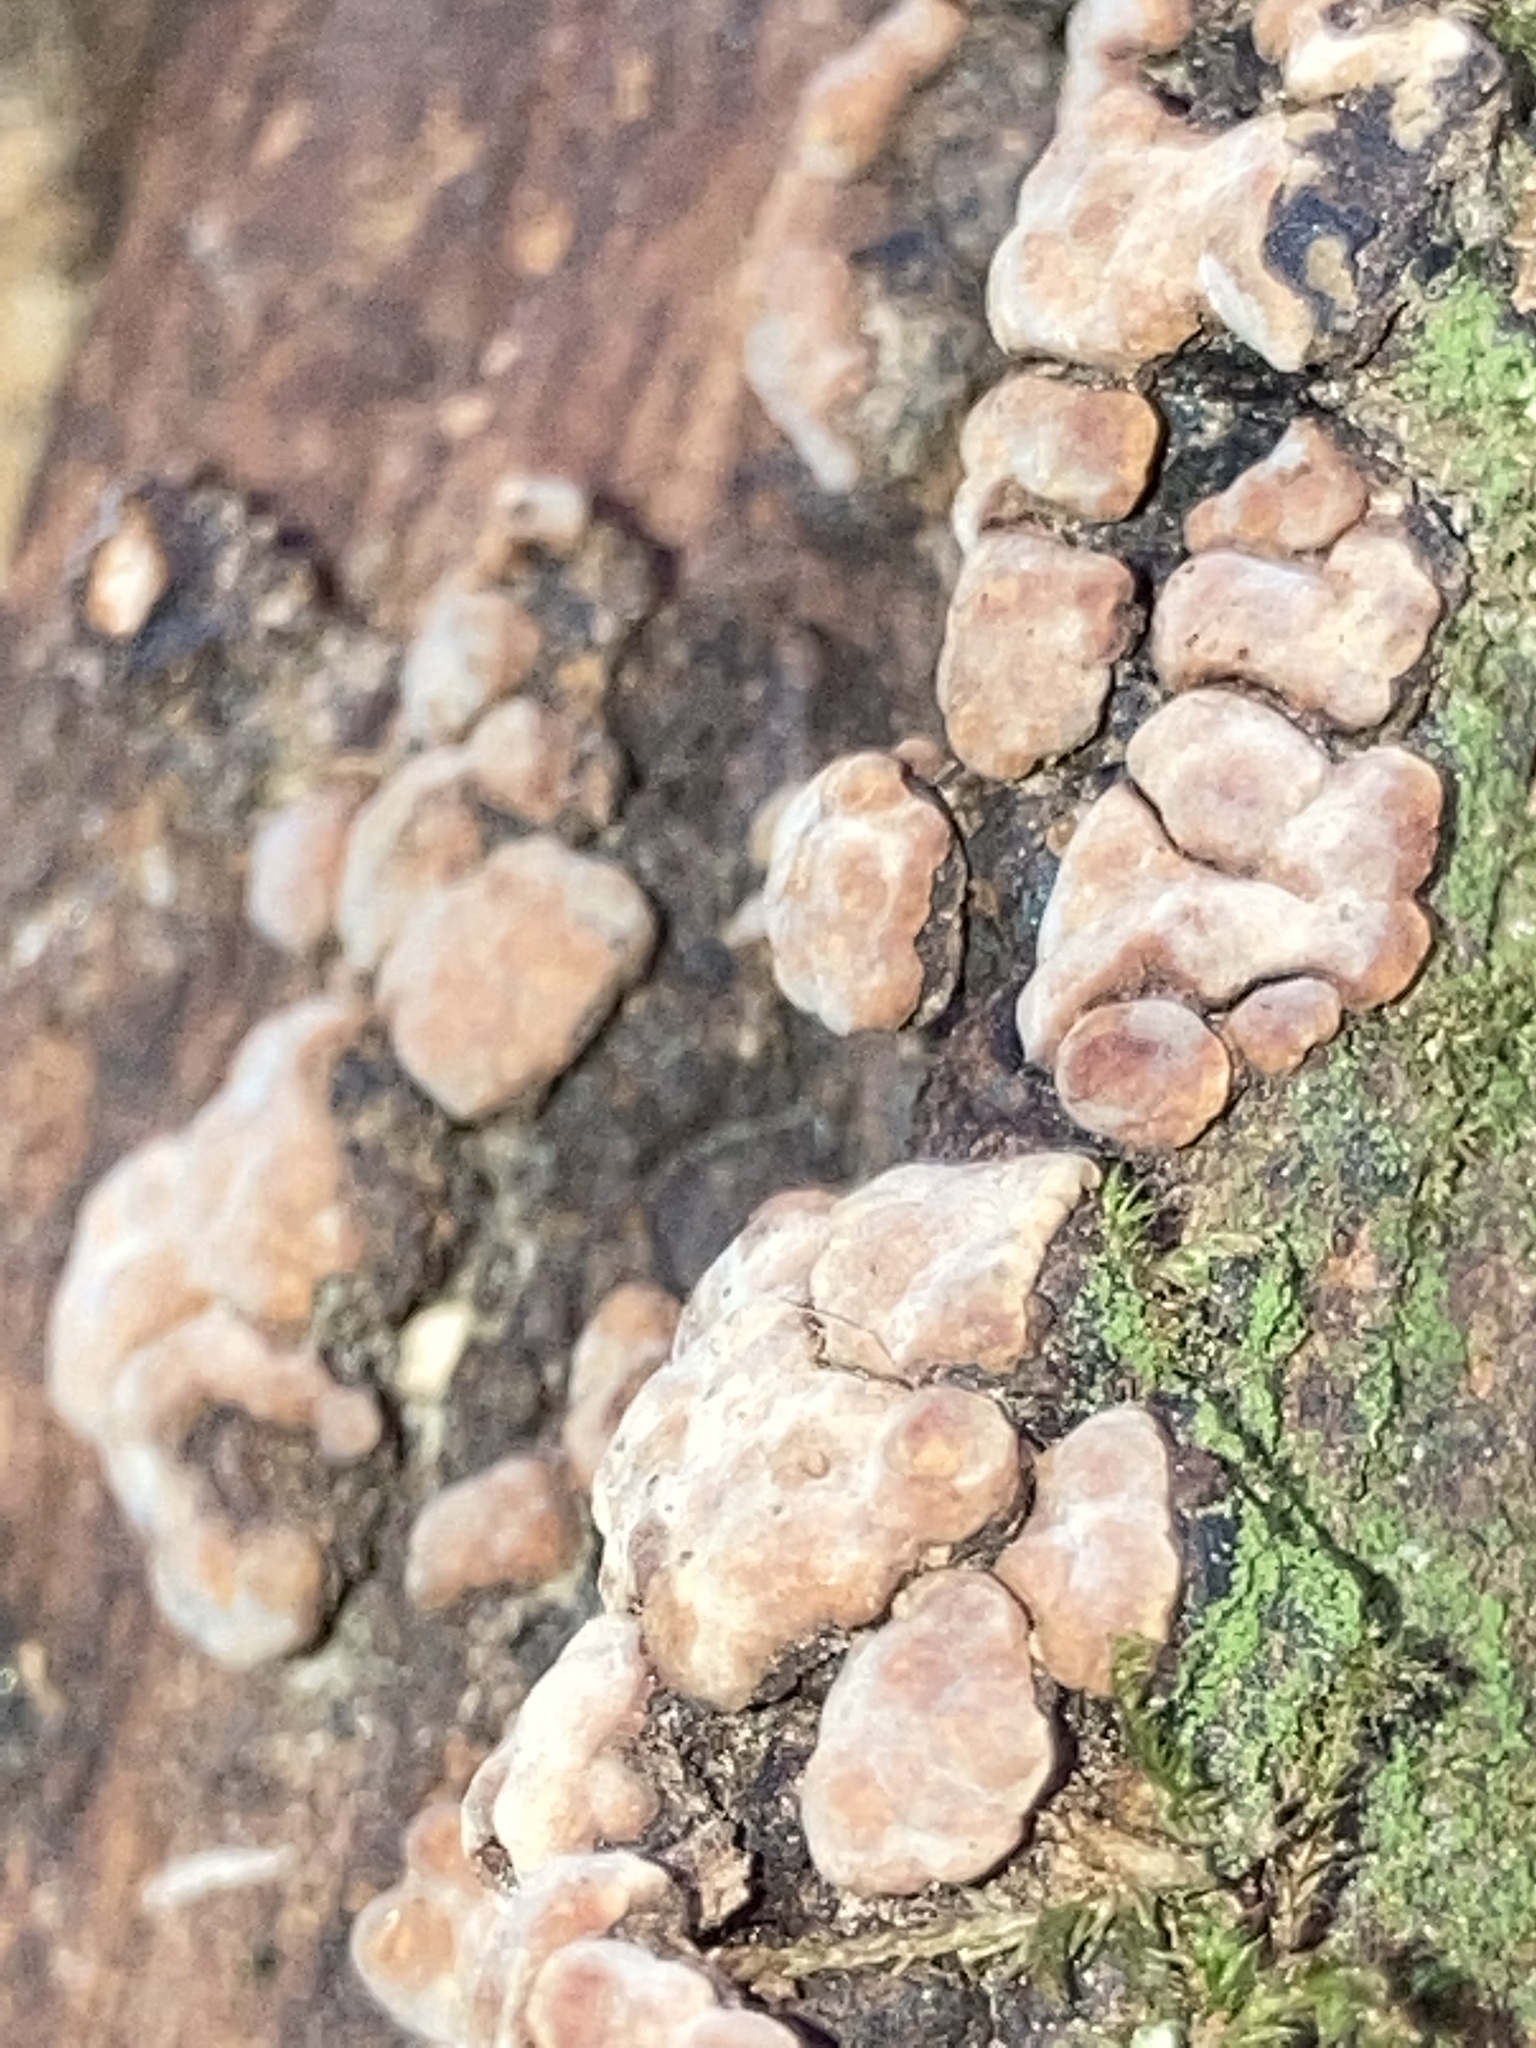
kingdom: Fungi
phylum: Basidiomycota
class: Agaricomycetes
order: Russulales
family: Stereaceae
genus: Xylobolus
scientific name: Xylobolus frustulatus
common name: Ceramic parchment
